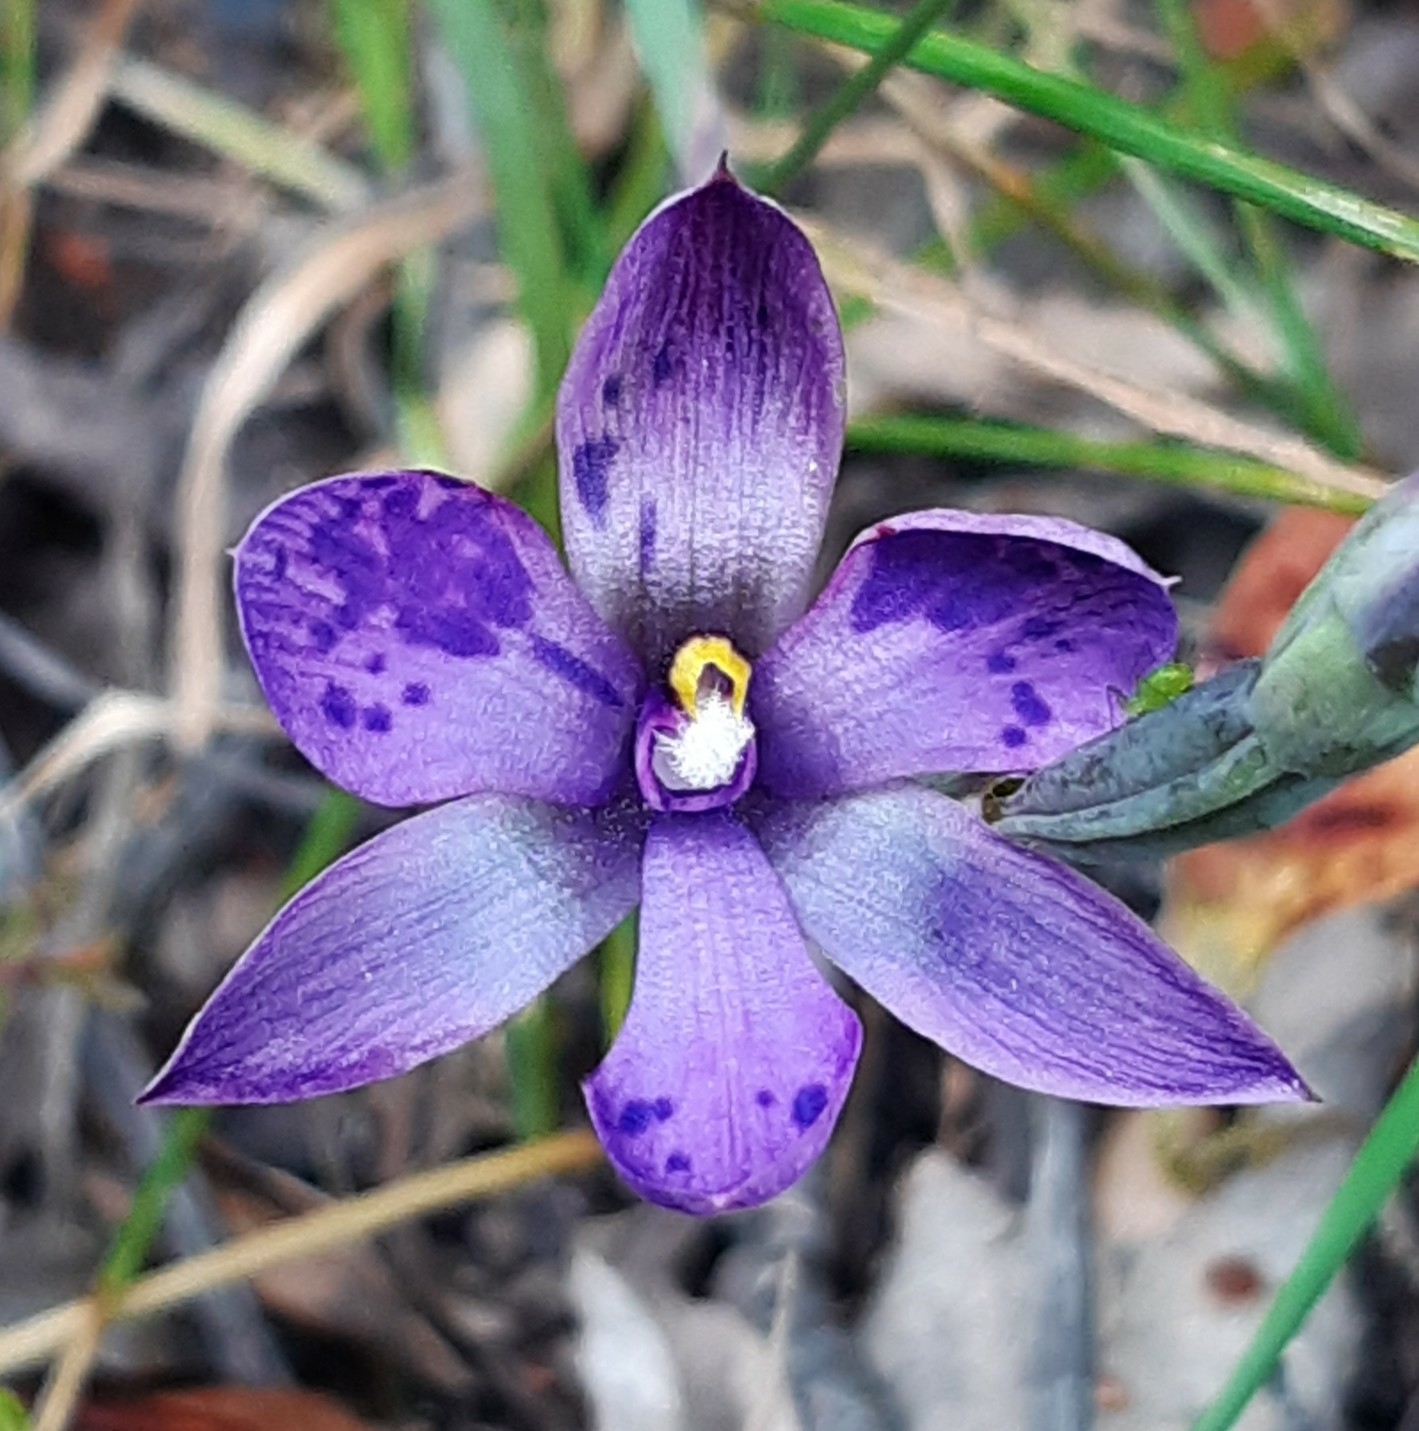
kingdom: Plantae
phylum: Tracheophyta
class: Liliopsida
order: Asparagales
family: Orchidaceae
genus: Thelymitra
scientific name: Thelymitra nervosa
